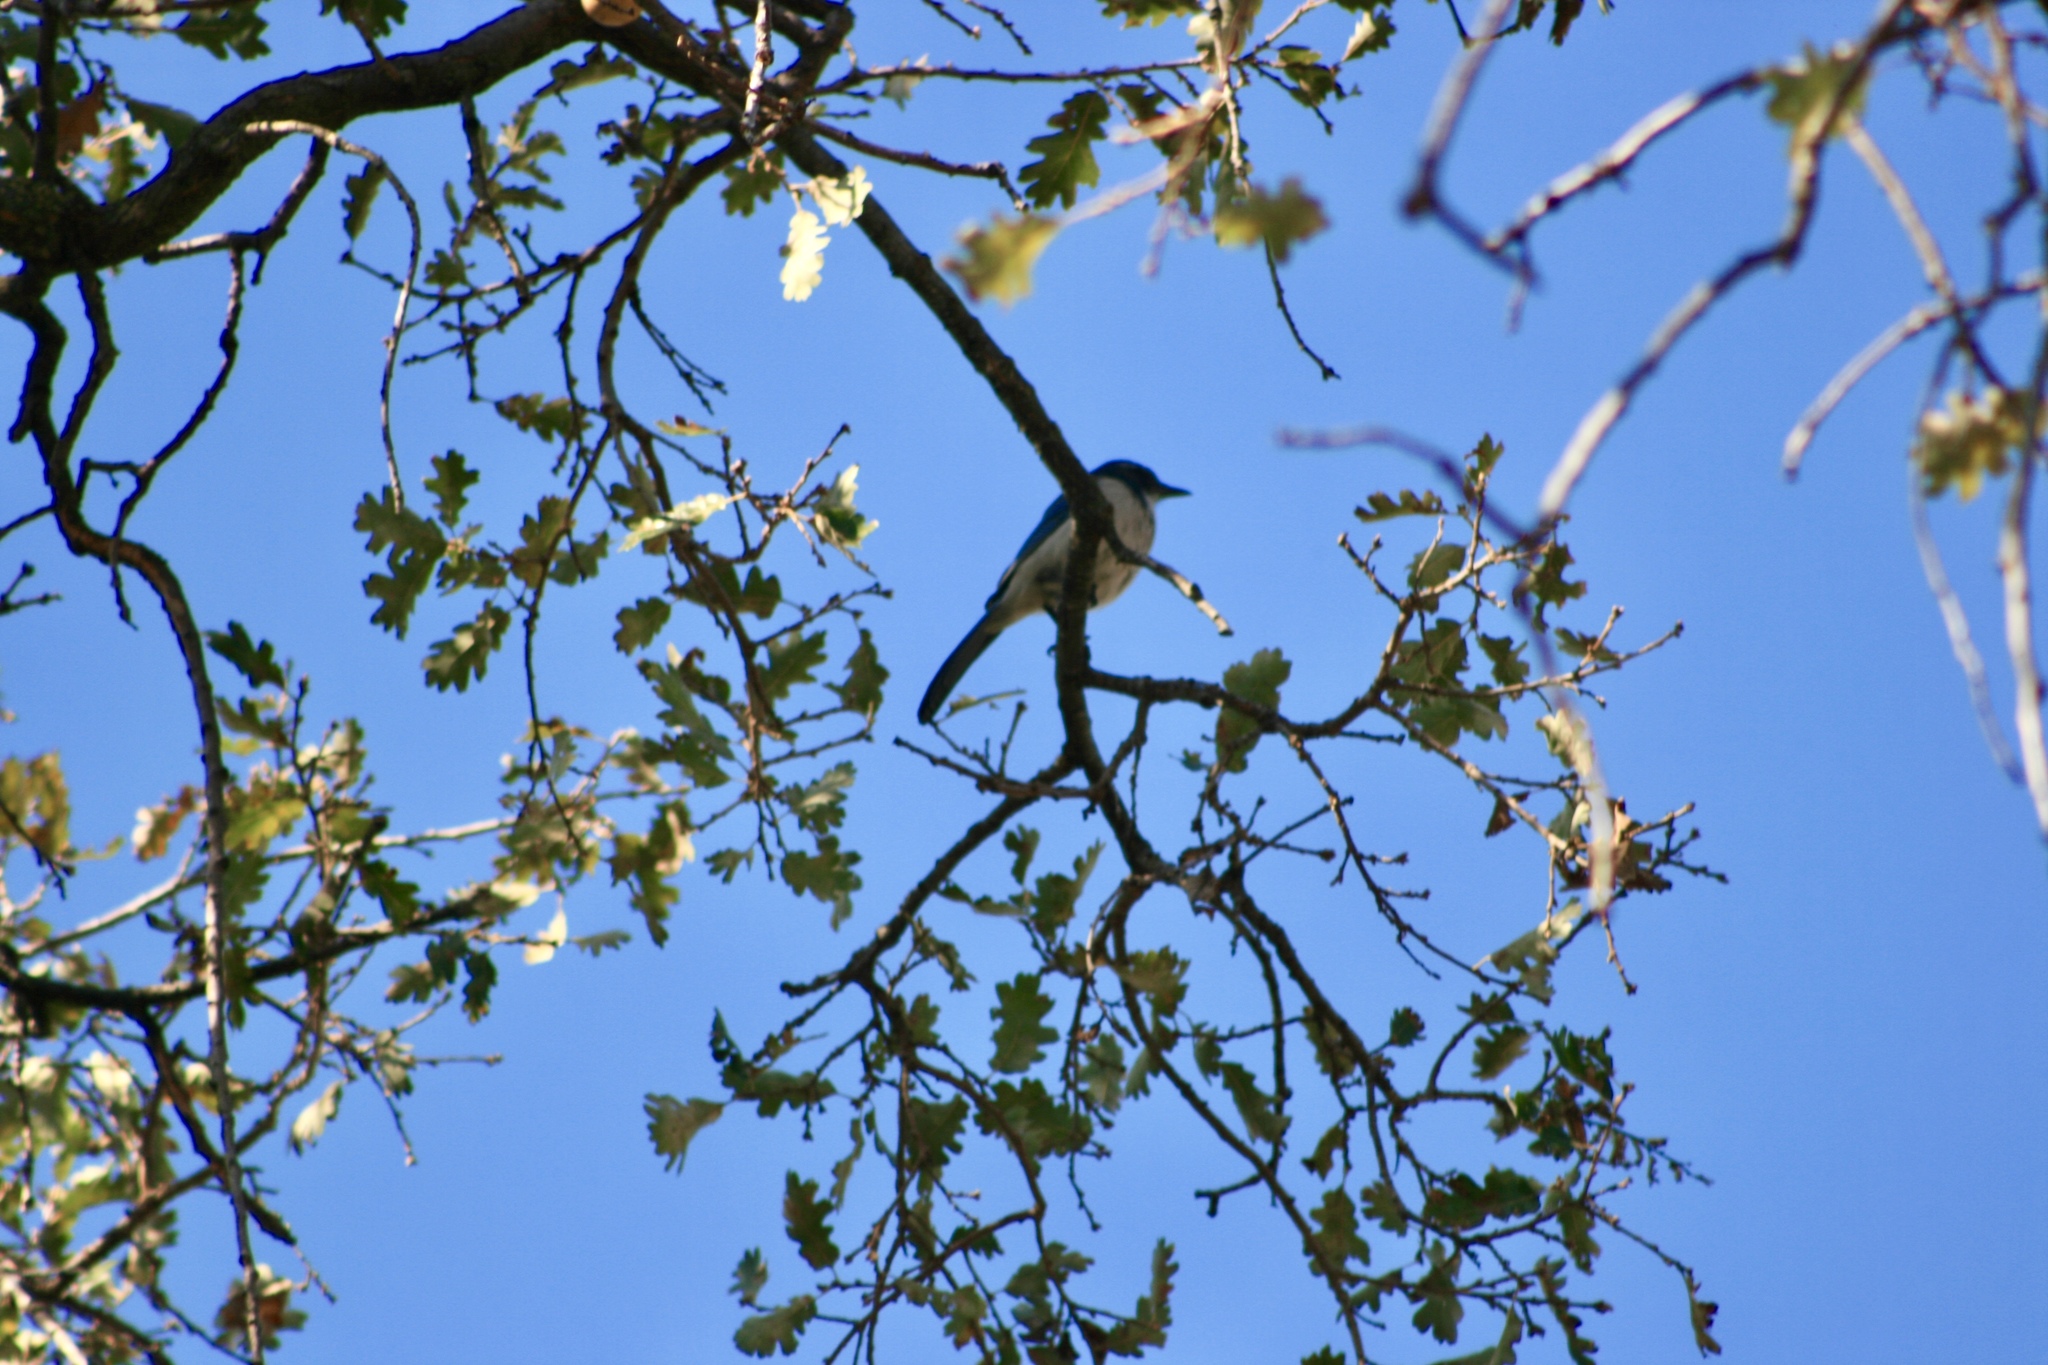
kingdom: Animalia
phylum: Chordata
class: Aves
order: Passeriformes
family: Corvidae
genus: Aphelocoma
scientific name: Aphelocoma californica
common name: California scrub-jay
